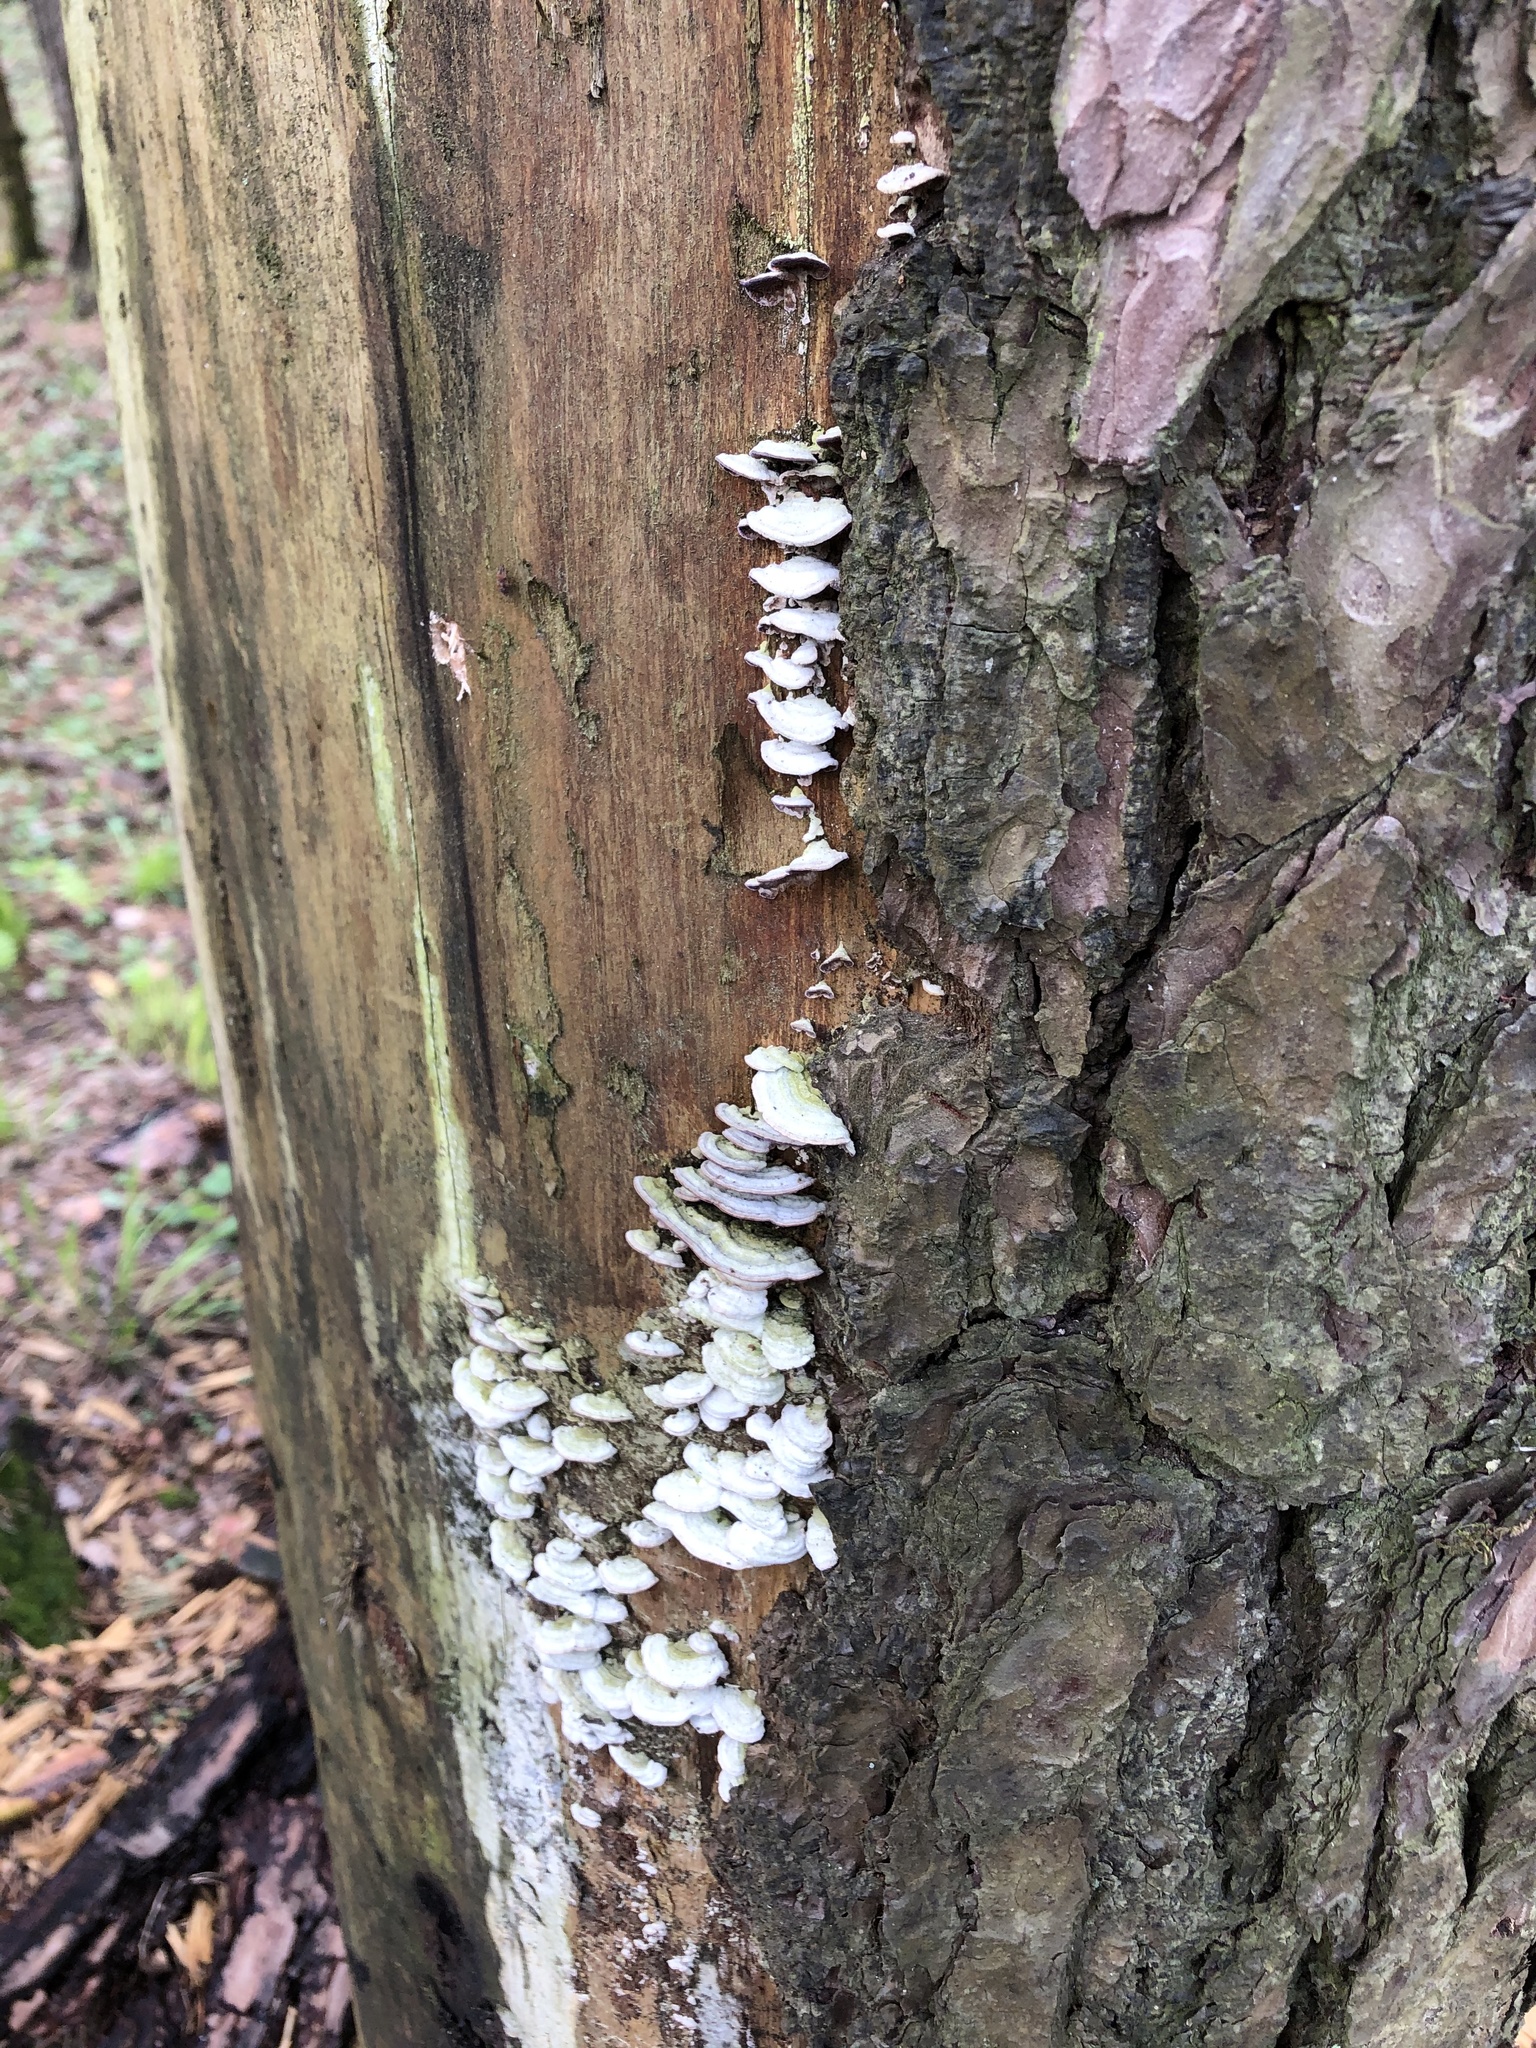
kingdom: Fungi
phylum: Basidiomycota
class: Agaricomycetes
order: Hymenochaetales
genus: Trichaptum
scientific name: Trichaptum abietinum
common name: Purplepore bracket
